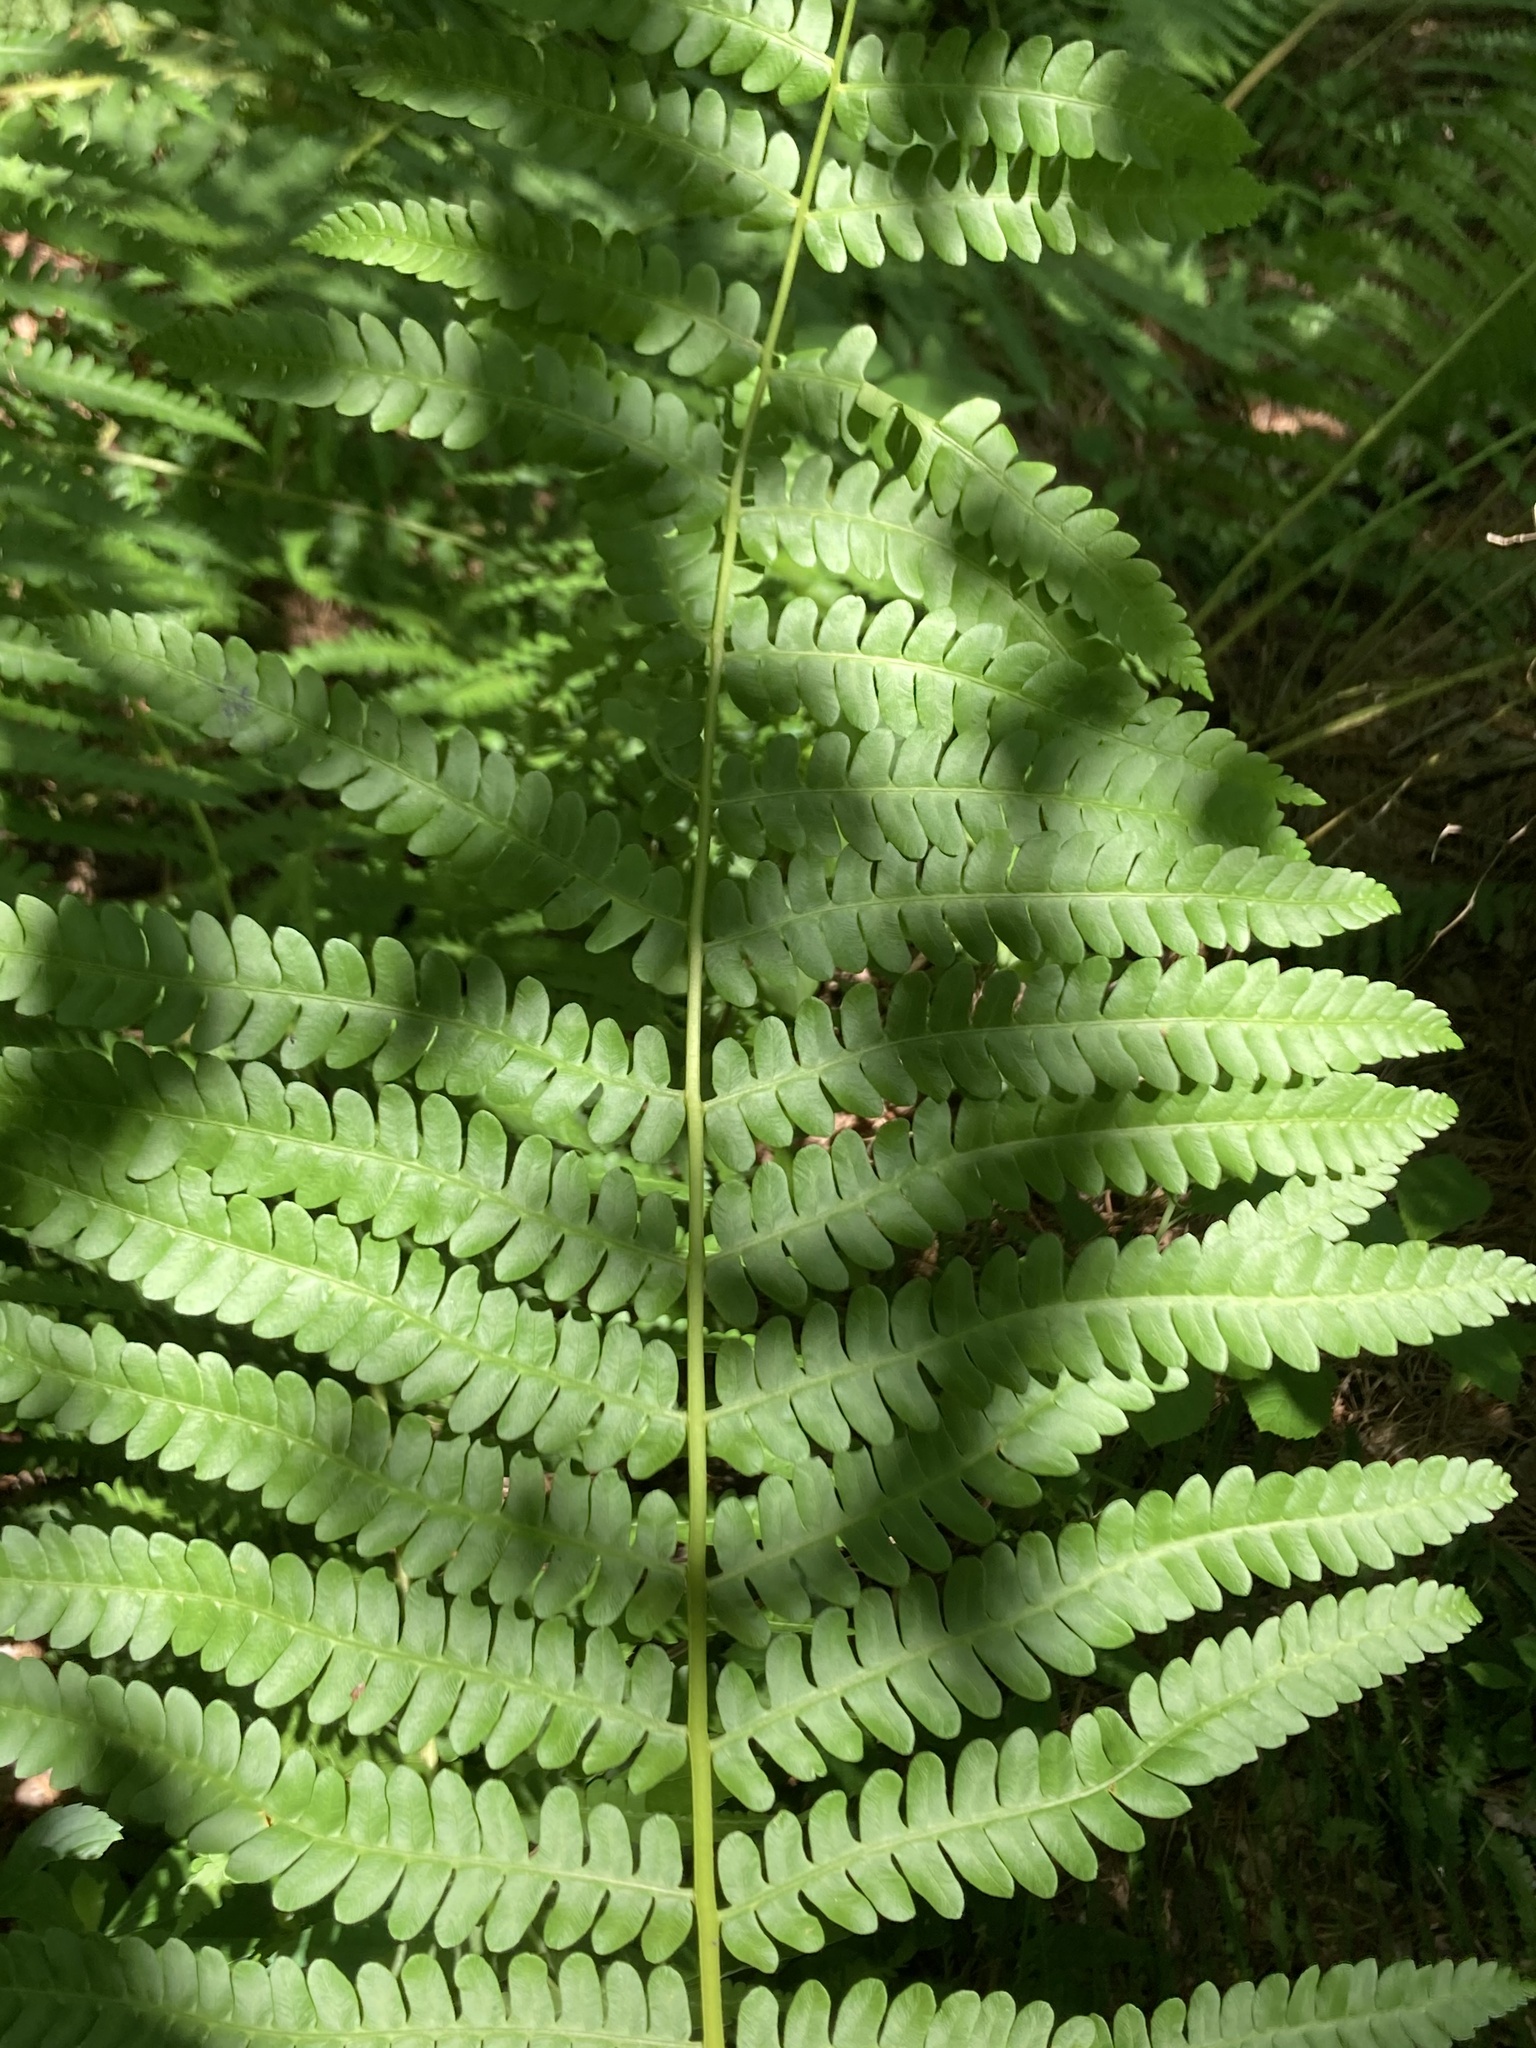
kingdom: Plantae
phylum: Tracheophyta
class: Polypodiopsida
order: Osmundales
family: Osmundaceae
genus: Osmundastrum
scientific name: Osmundastrum cinnamomeum
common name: Cinnamon fern
